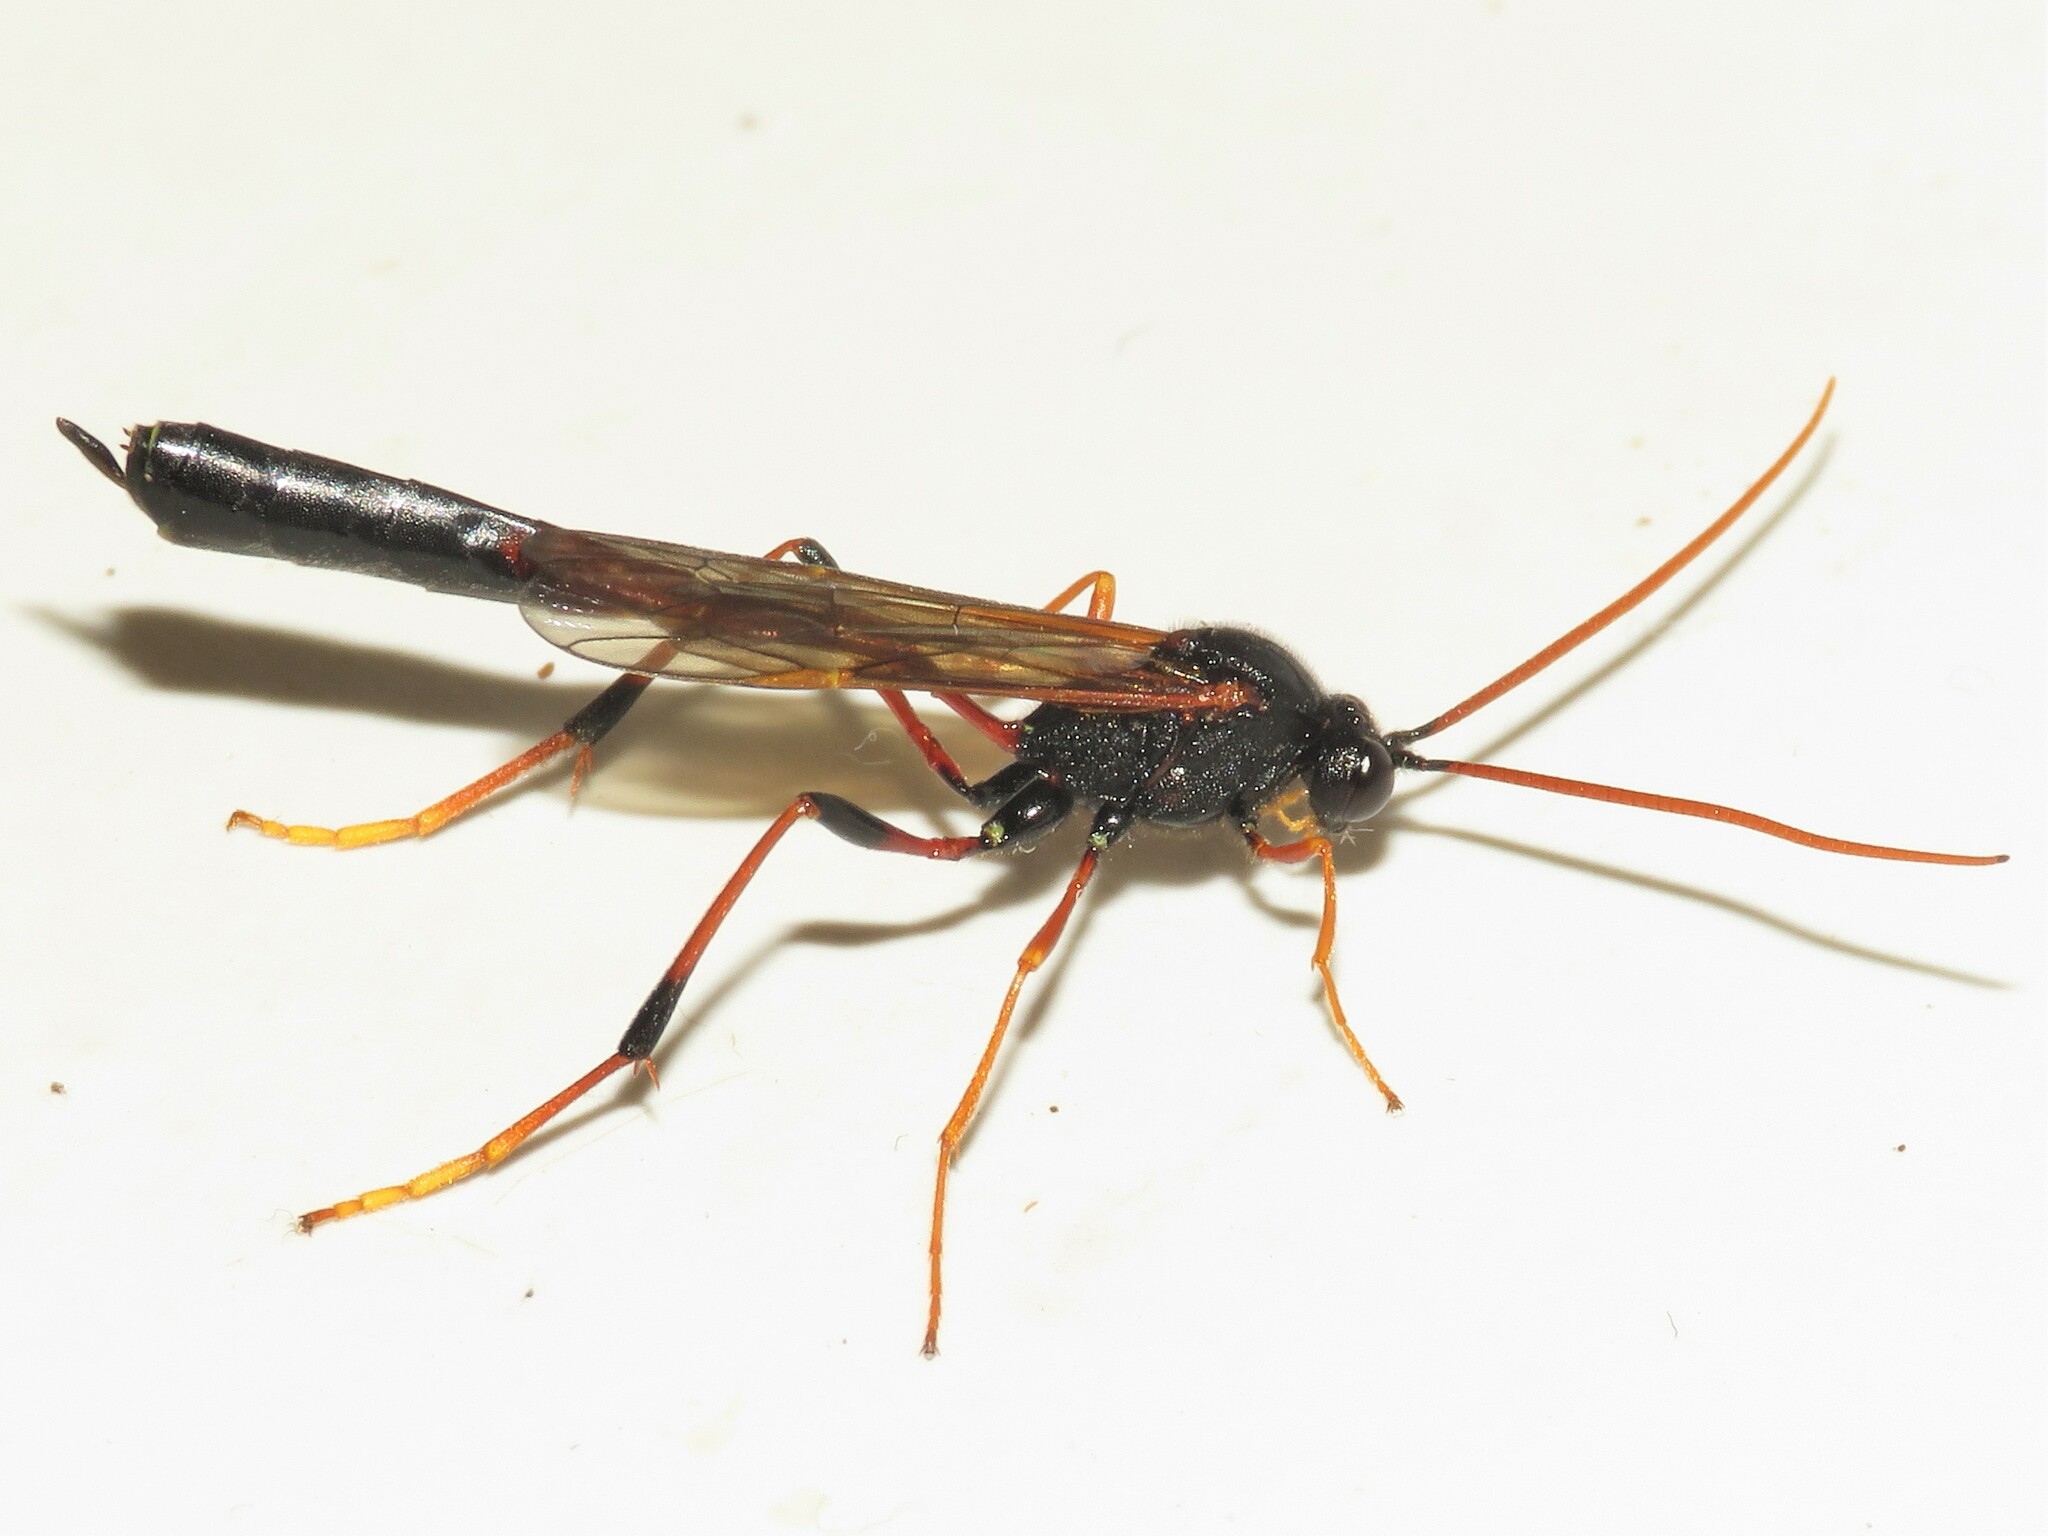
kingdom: Animalia
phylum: Arthropoda
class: Insecta
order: Hymenoptera
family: Ichneumonidae
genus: Therion
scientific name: Therion circumflexum
